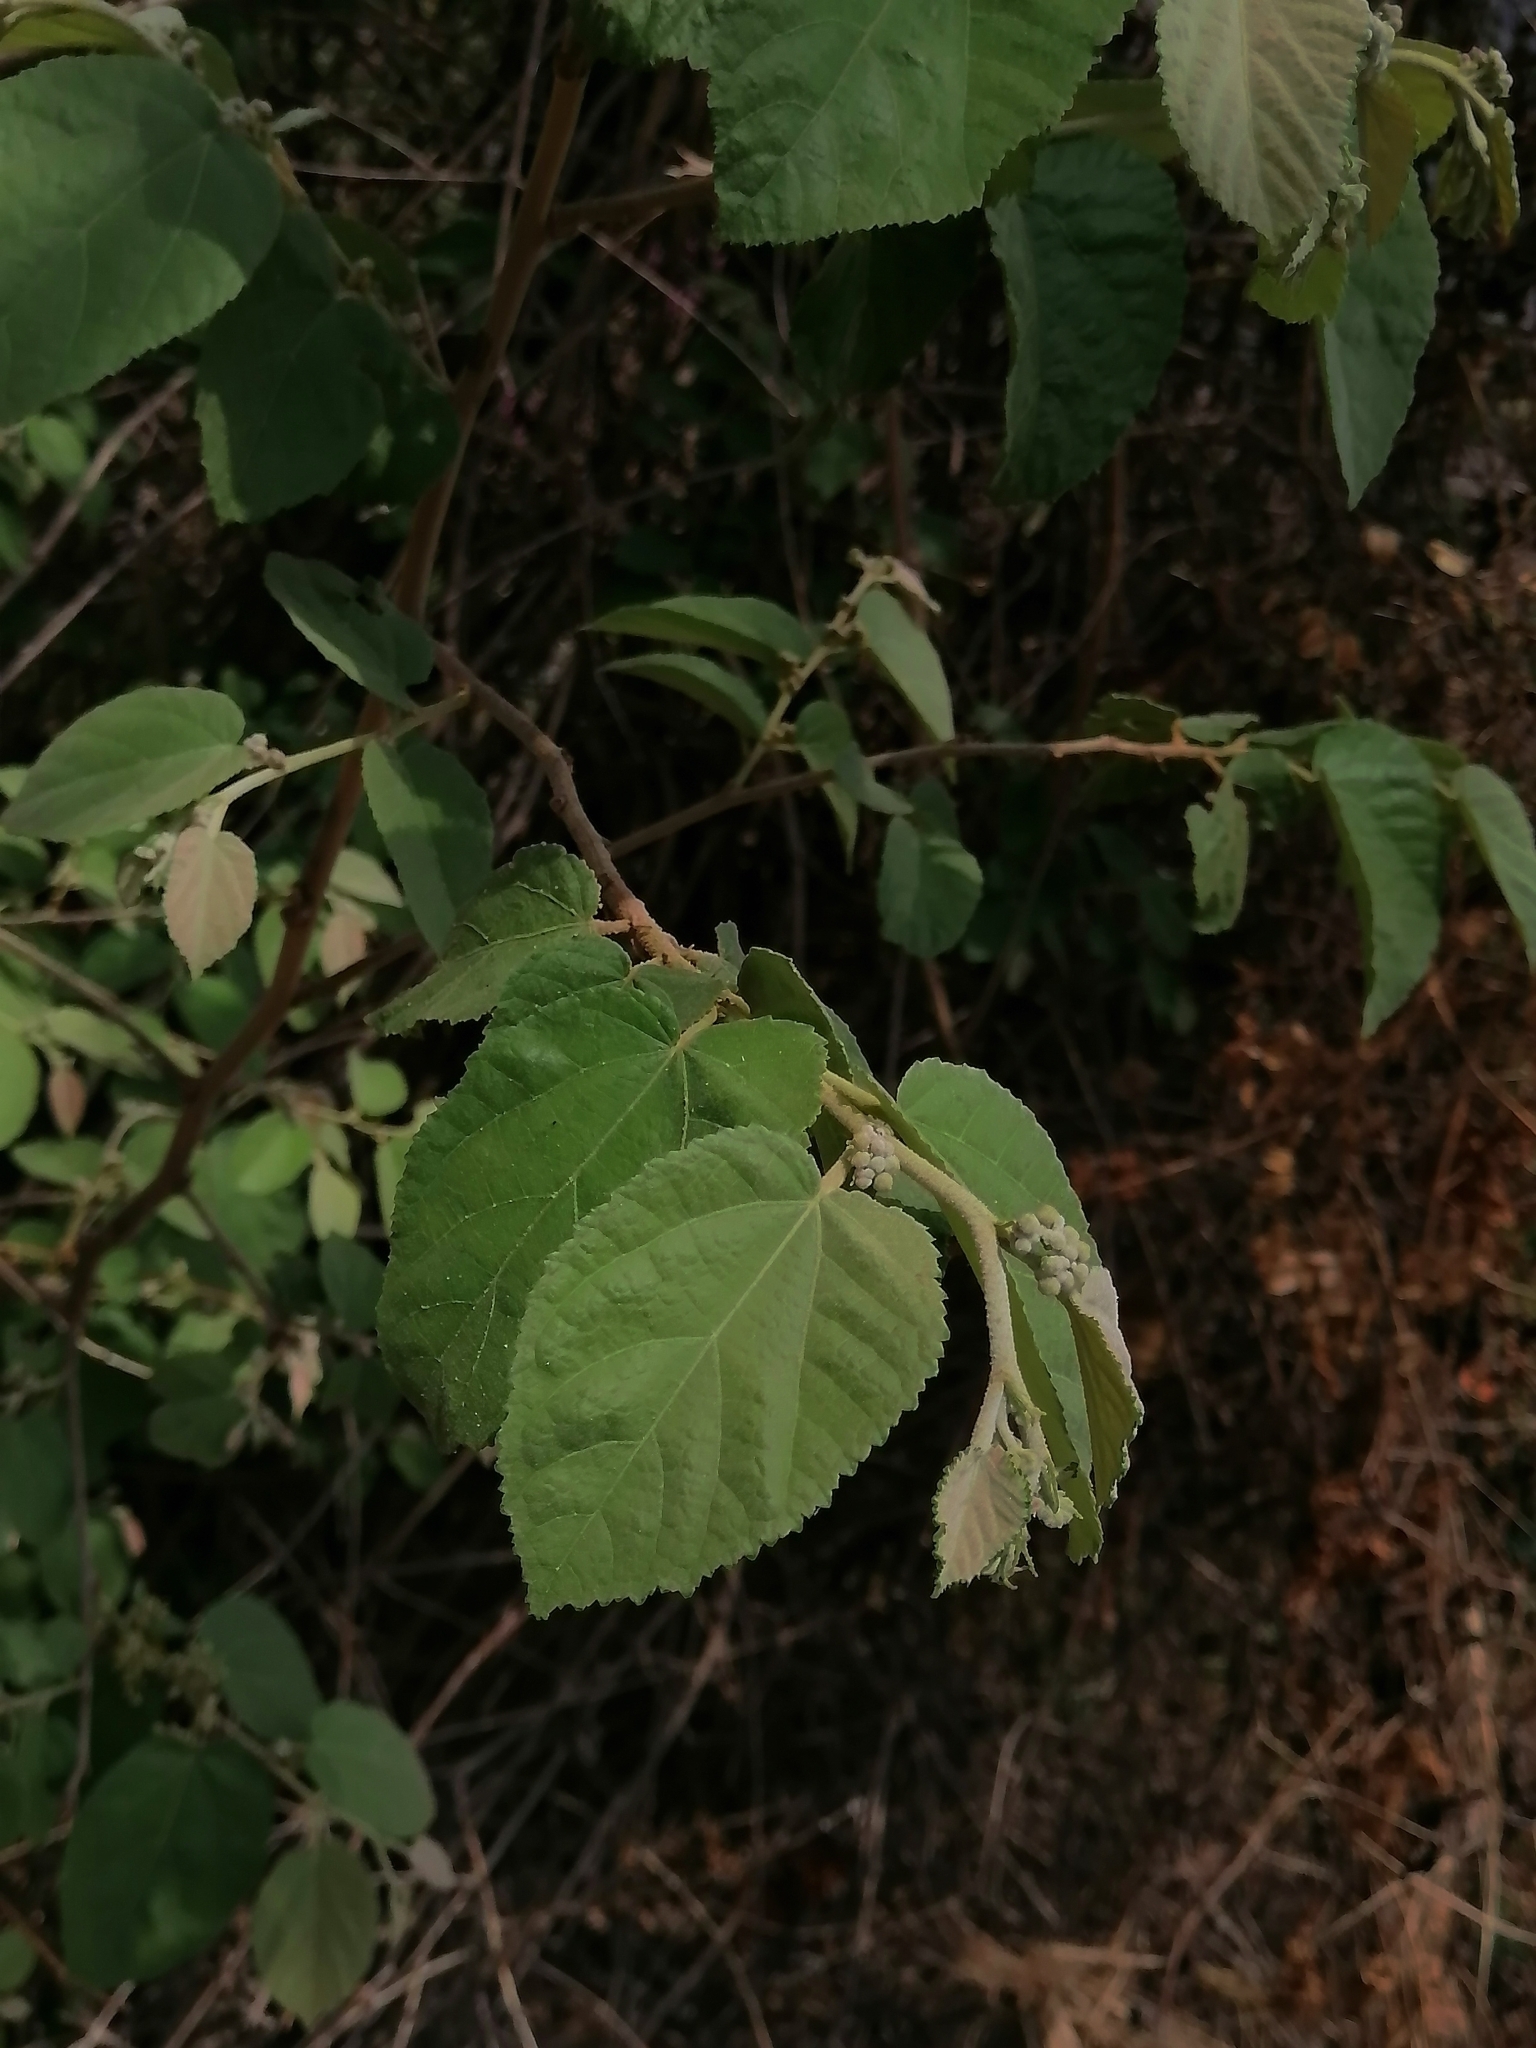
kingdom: Plantae
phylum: Tracheophyta
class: Magnoliopsida
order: Malvales
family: Malvaceae
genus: Guazuma
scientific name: Guazuma ulmifolia
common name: Bastard-cedar
